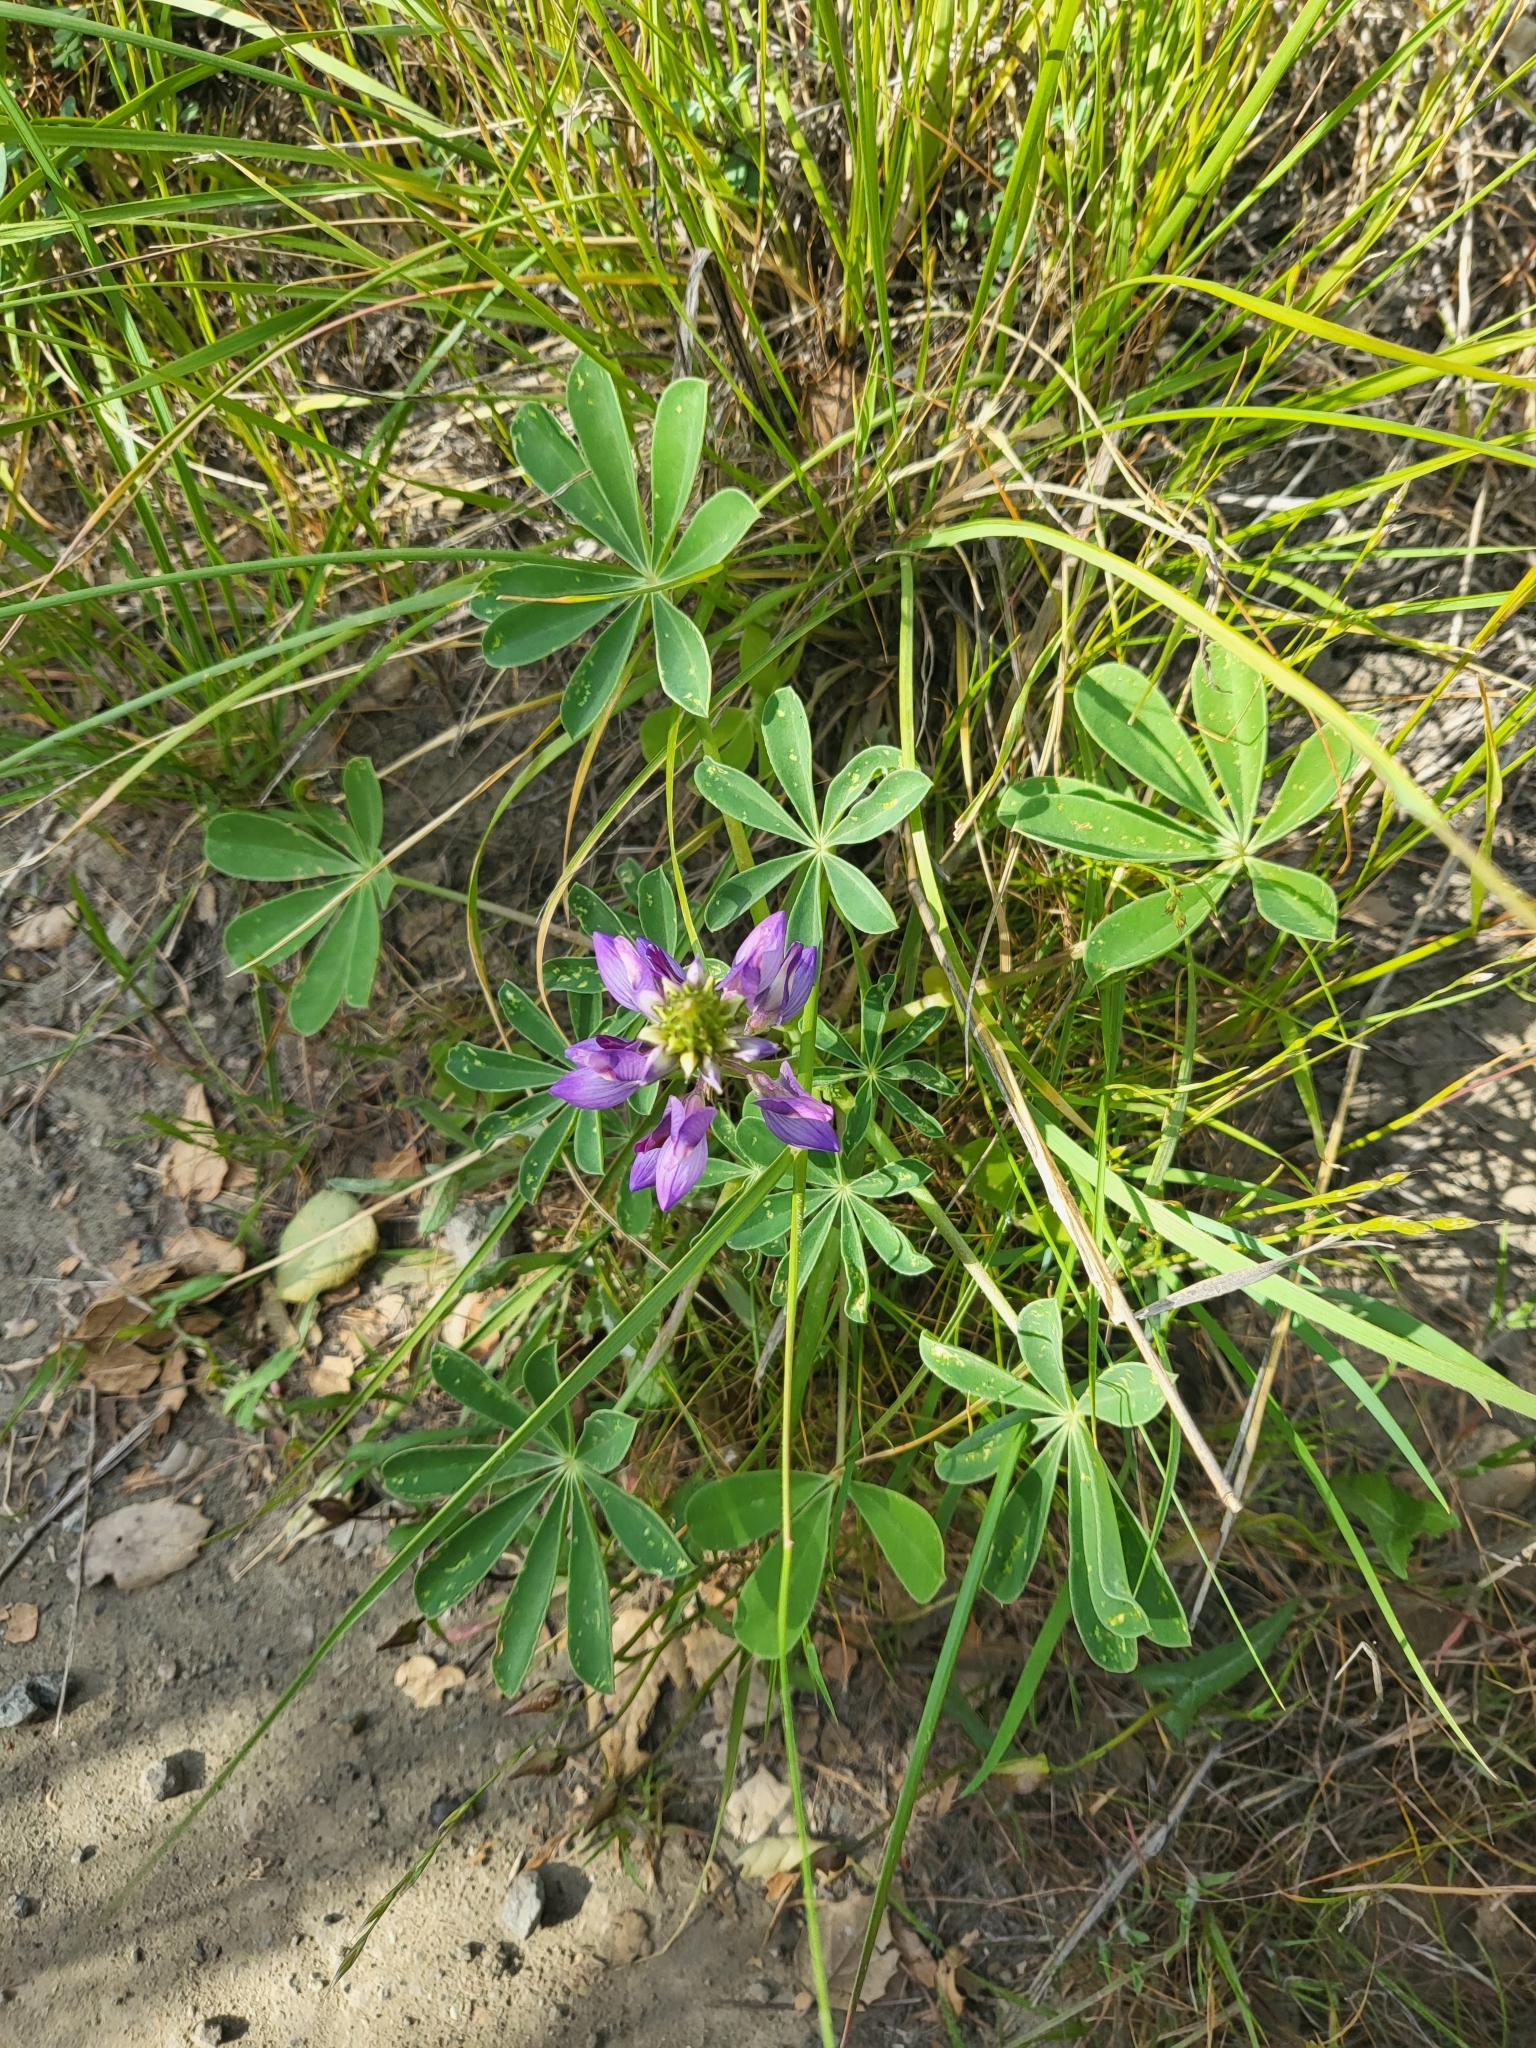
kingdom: Plantae
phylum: Tracheophyta
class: Magnoliopsida
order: Fabales
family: Fabaceae
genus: Lupinus
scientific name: Lupinus succulentus
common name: Arroyo lupine
